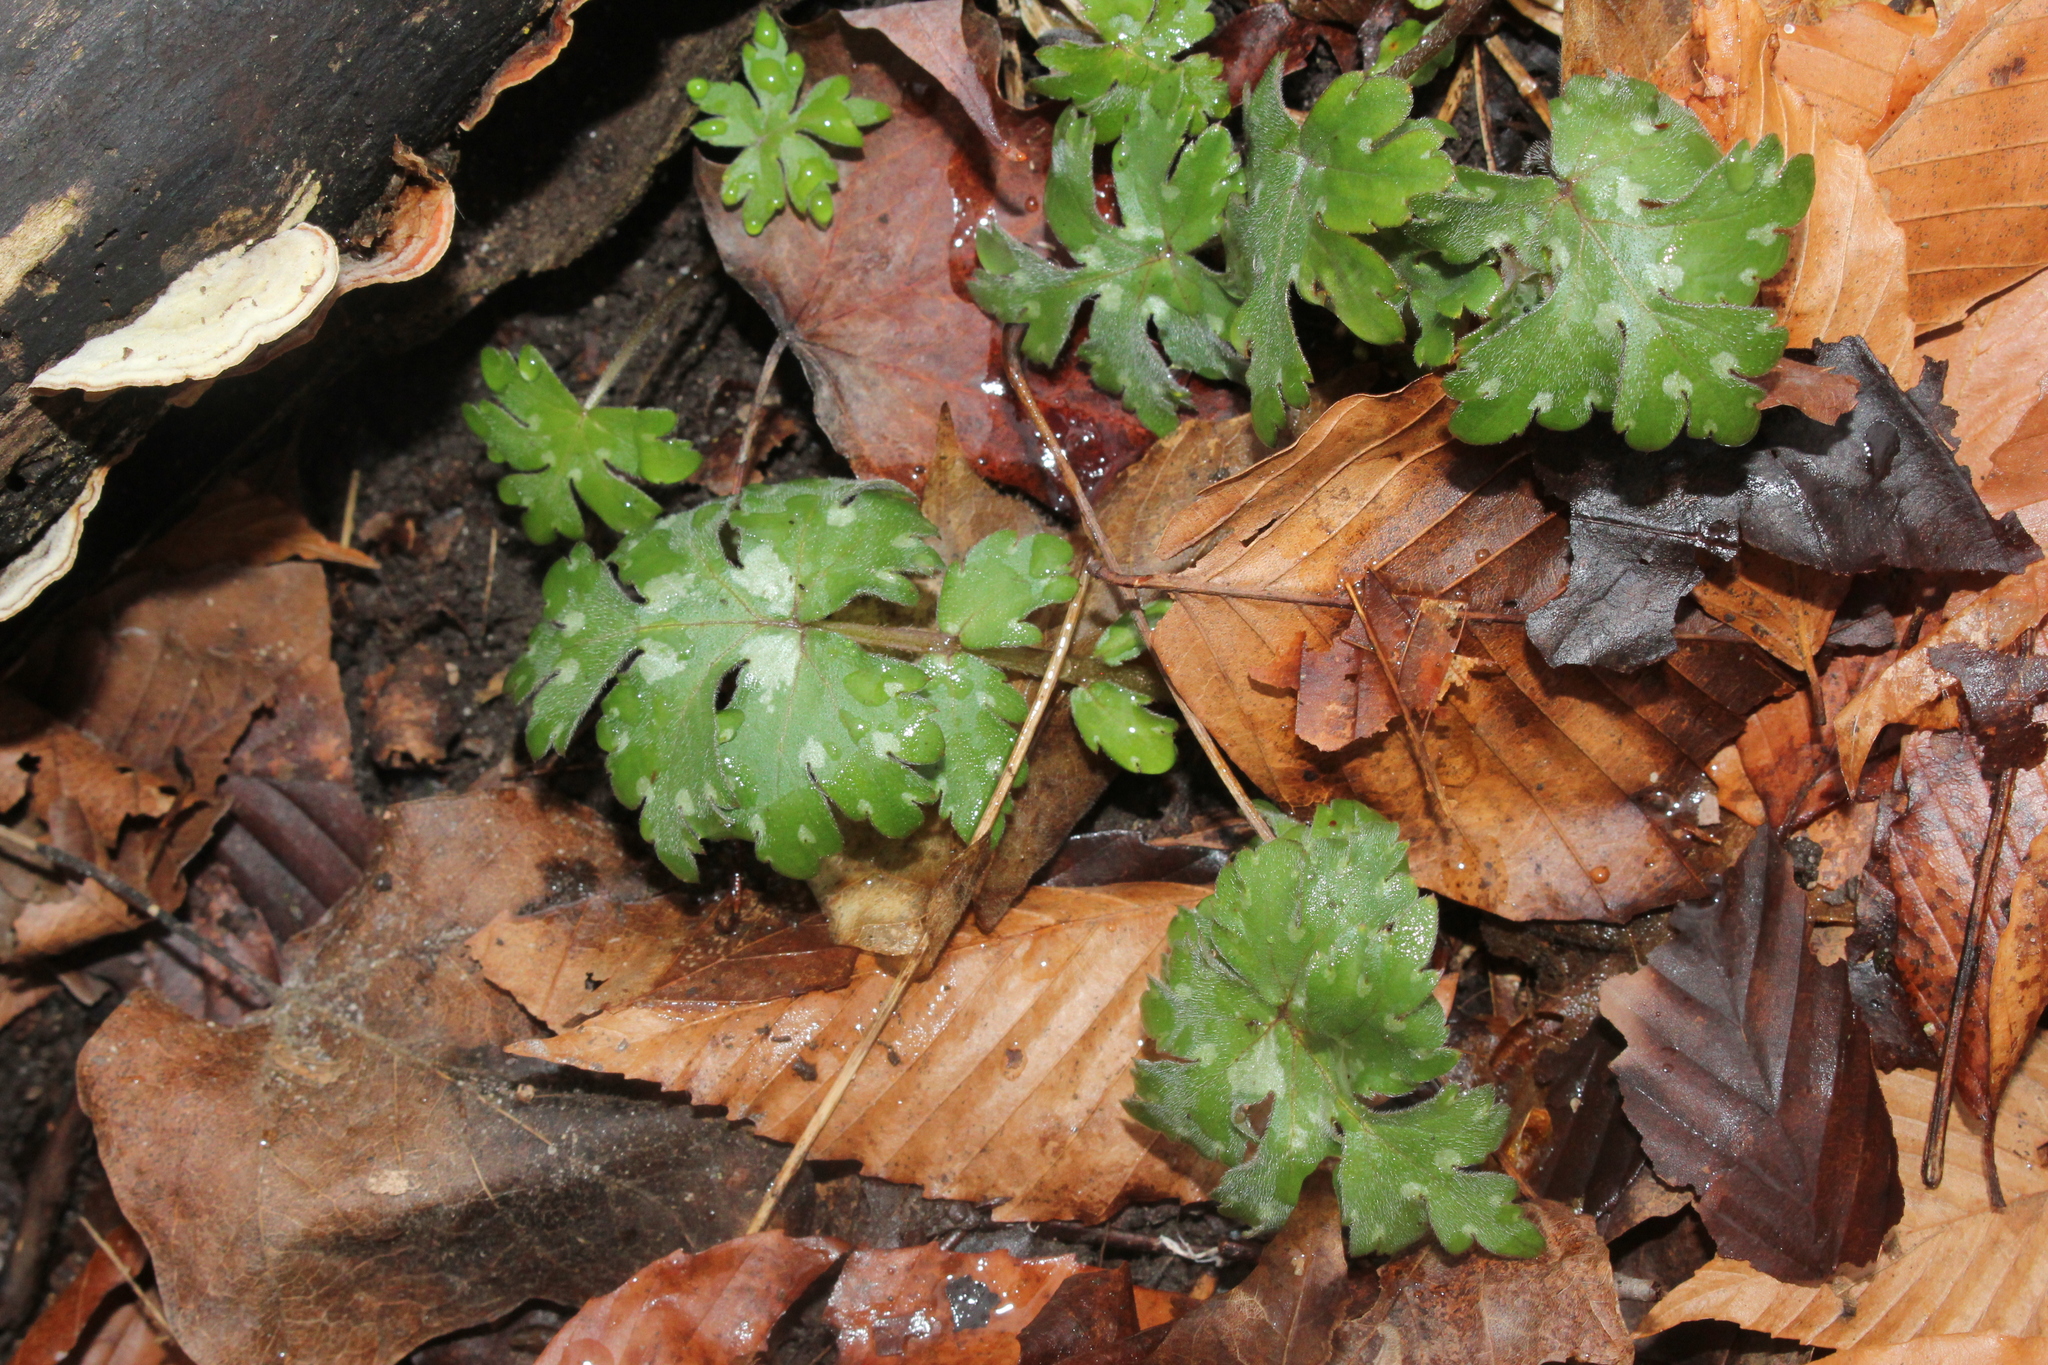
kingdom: Plantae
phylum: Tracheophyta
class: Magnoliopsida
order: Boraginales
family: Hydrophyllaceae
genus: Hydrophyllum
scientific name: Hydrophyllum canadense
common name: Canada waterleaf
